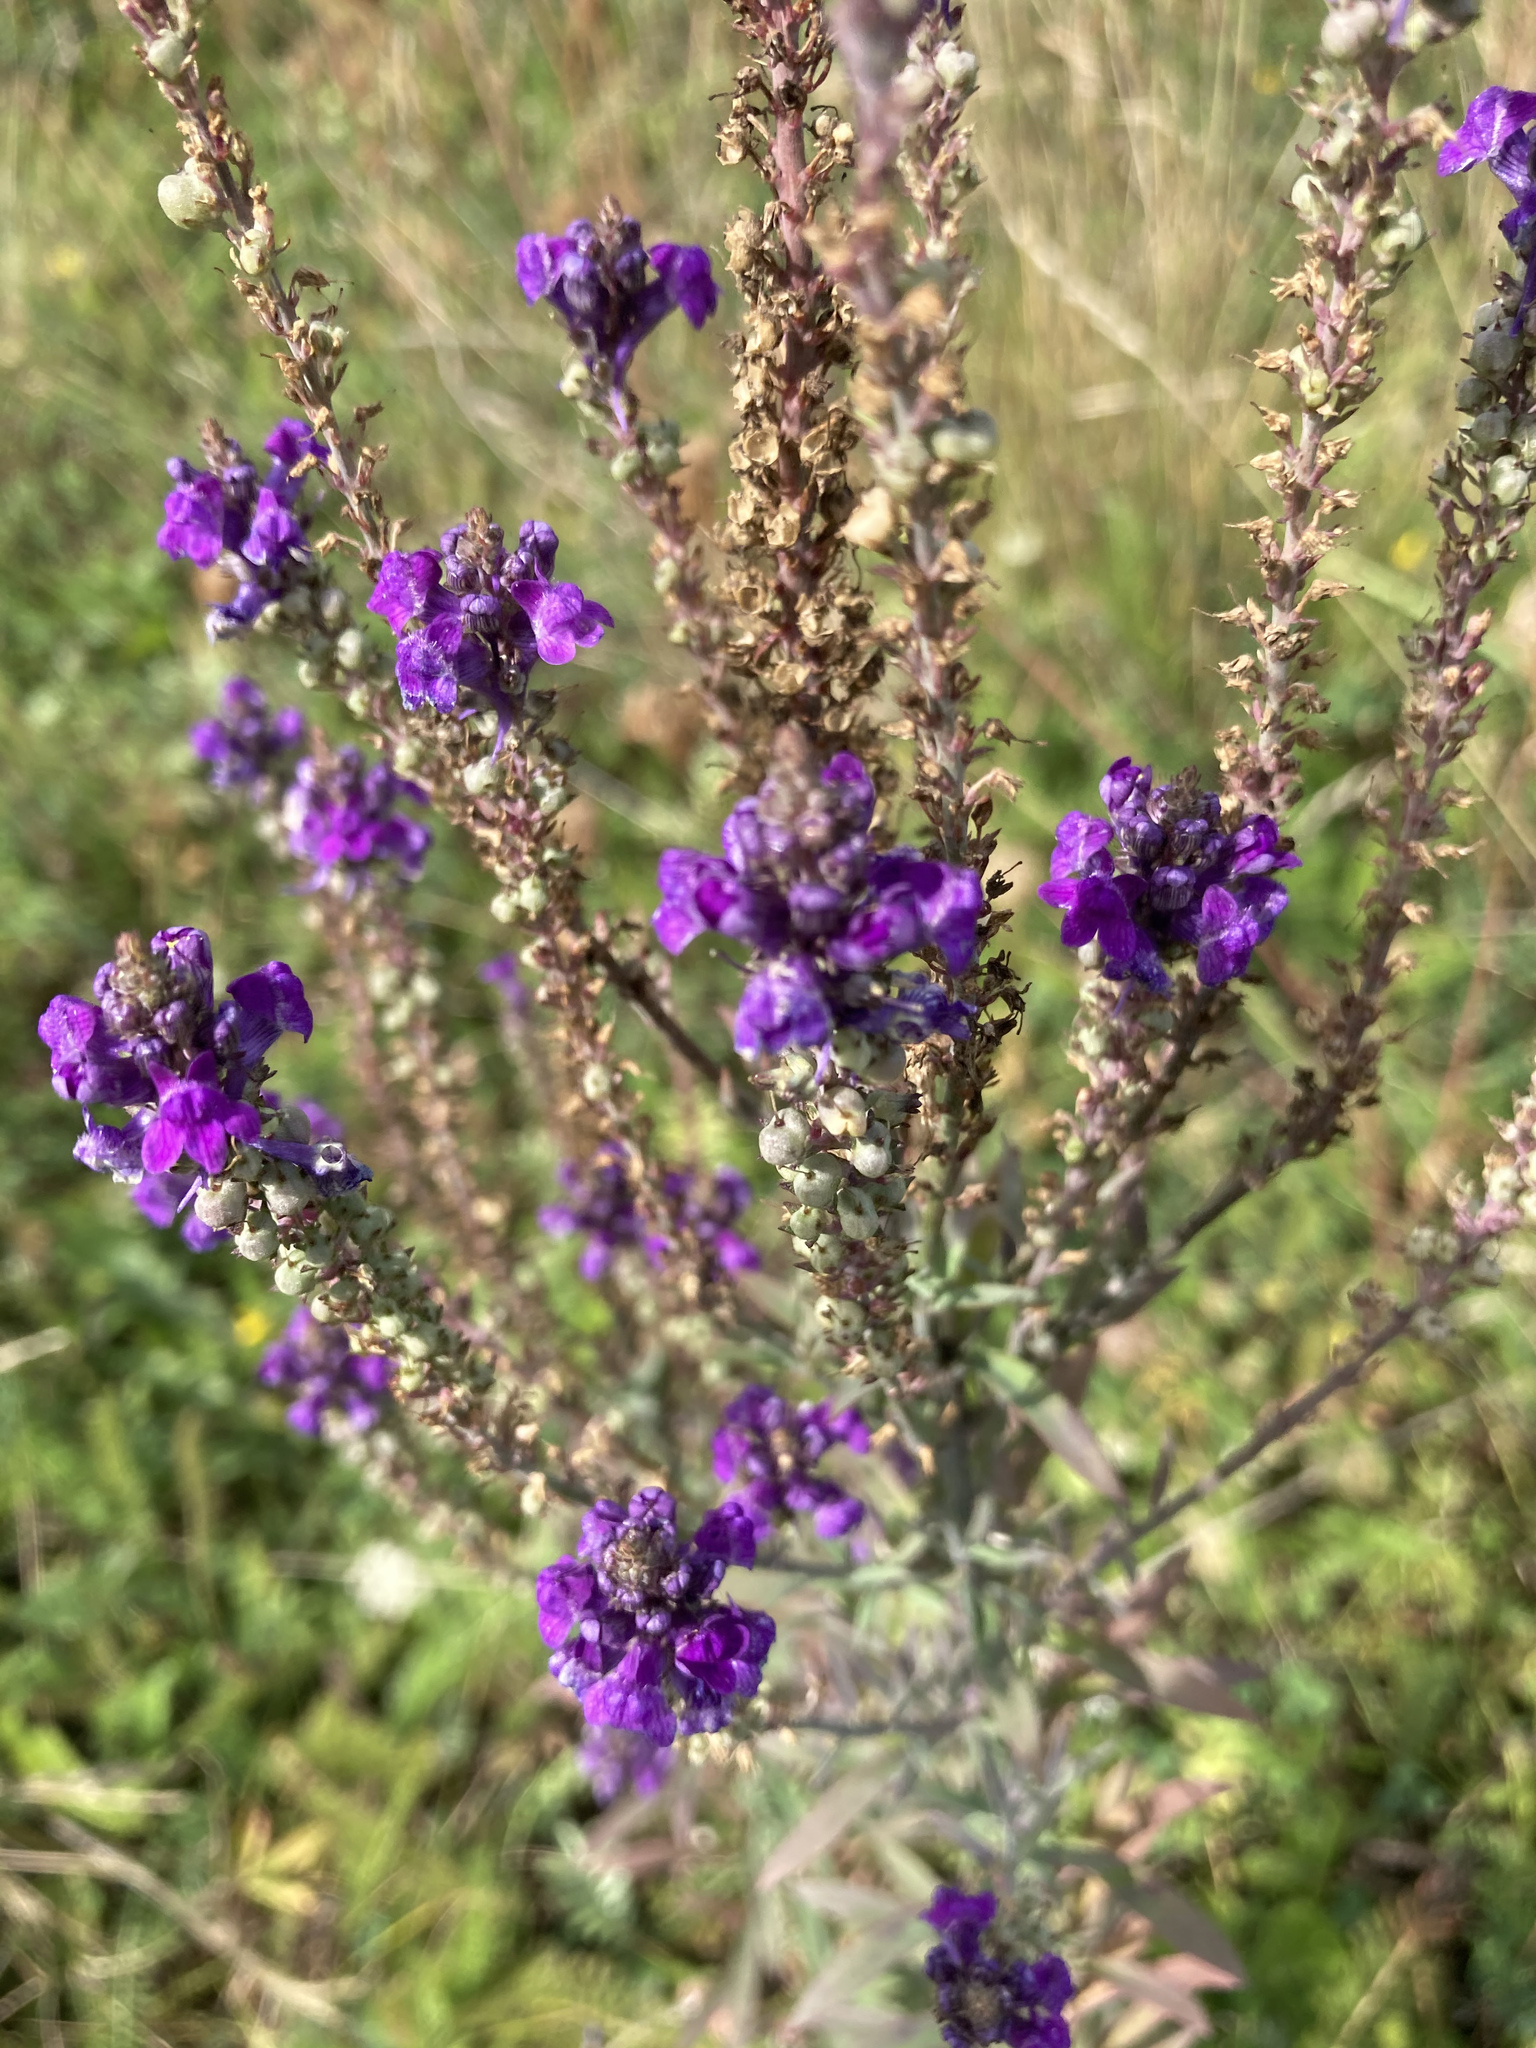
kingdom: Plantae
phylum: Tracheophyta
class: Magnoliopsida
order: Lamiales
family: Plantaginaceae
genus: Linaria
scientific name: Linaria purpurea
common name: Purple toadflax
